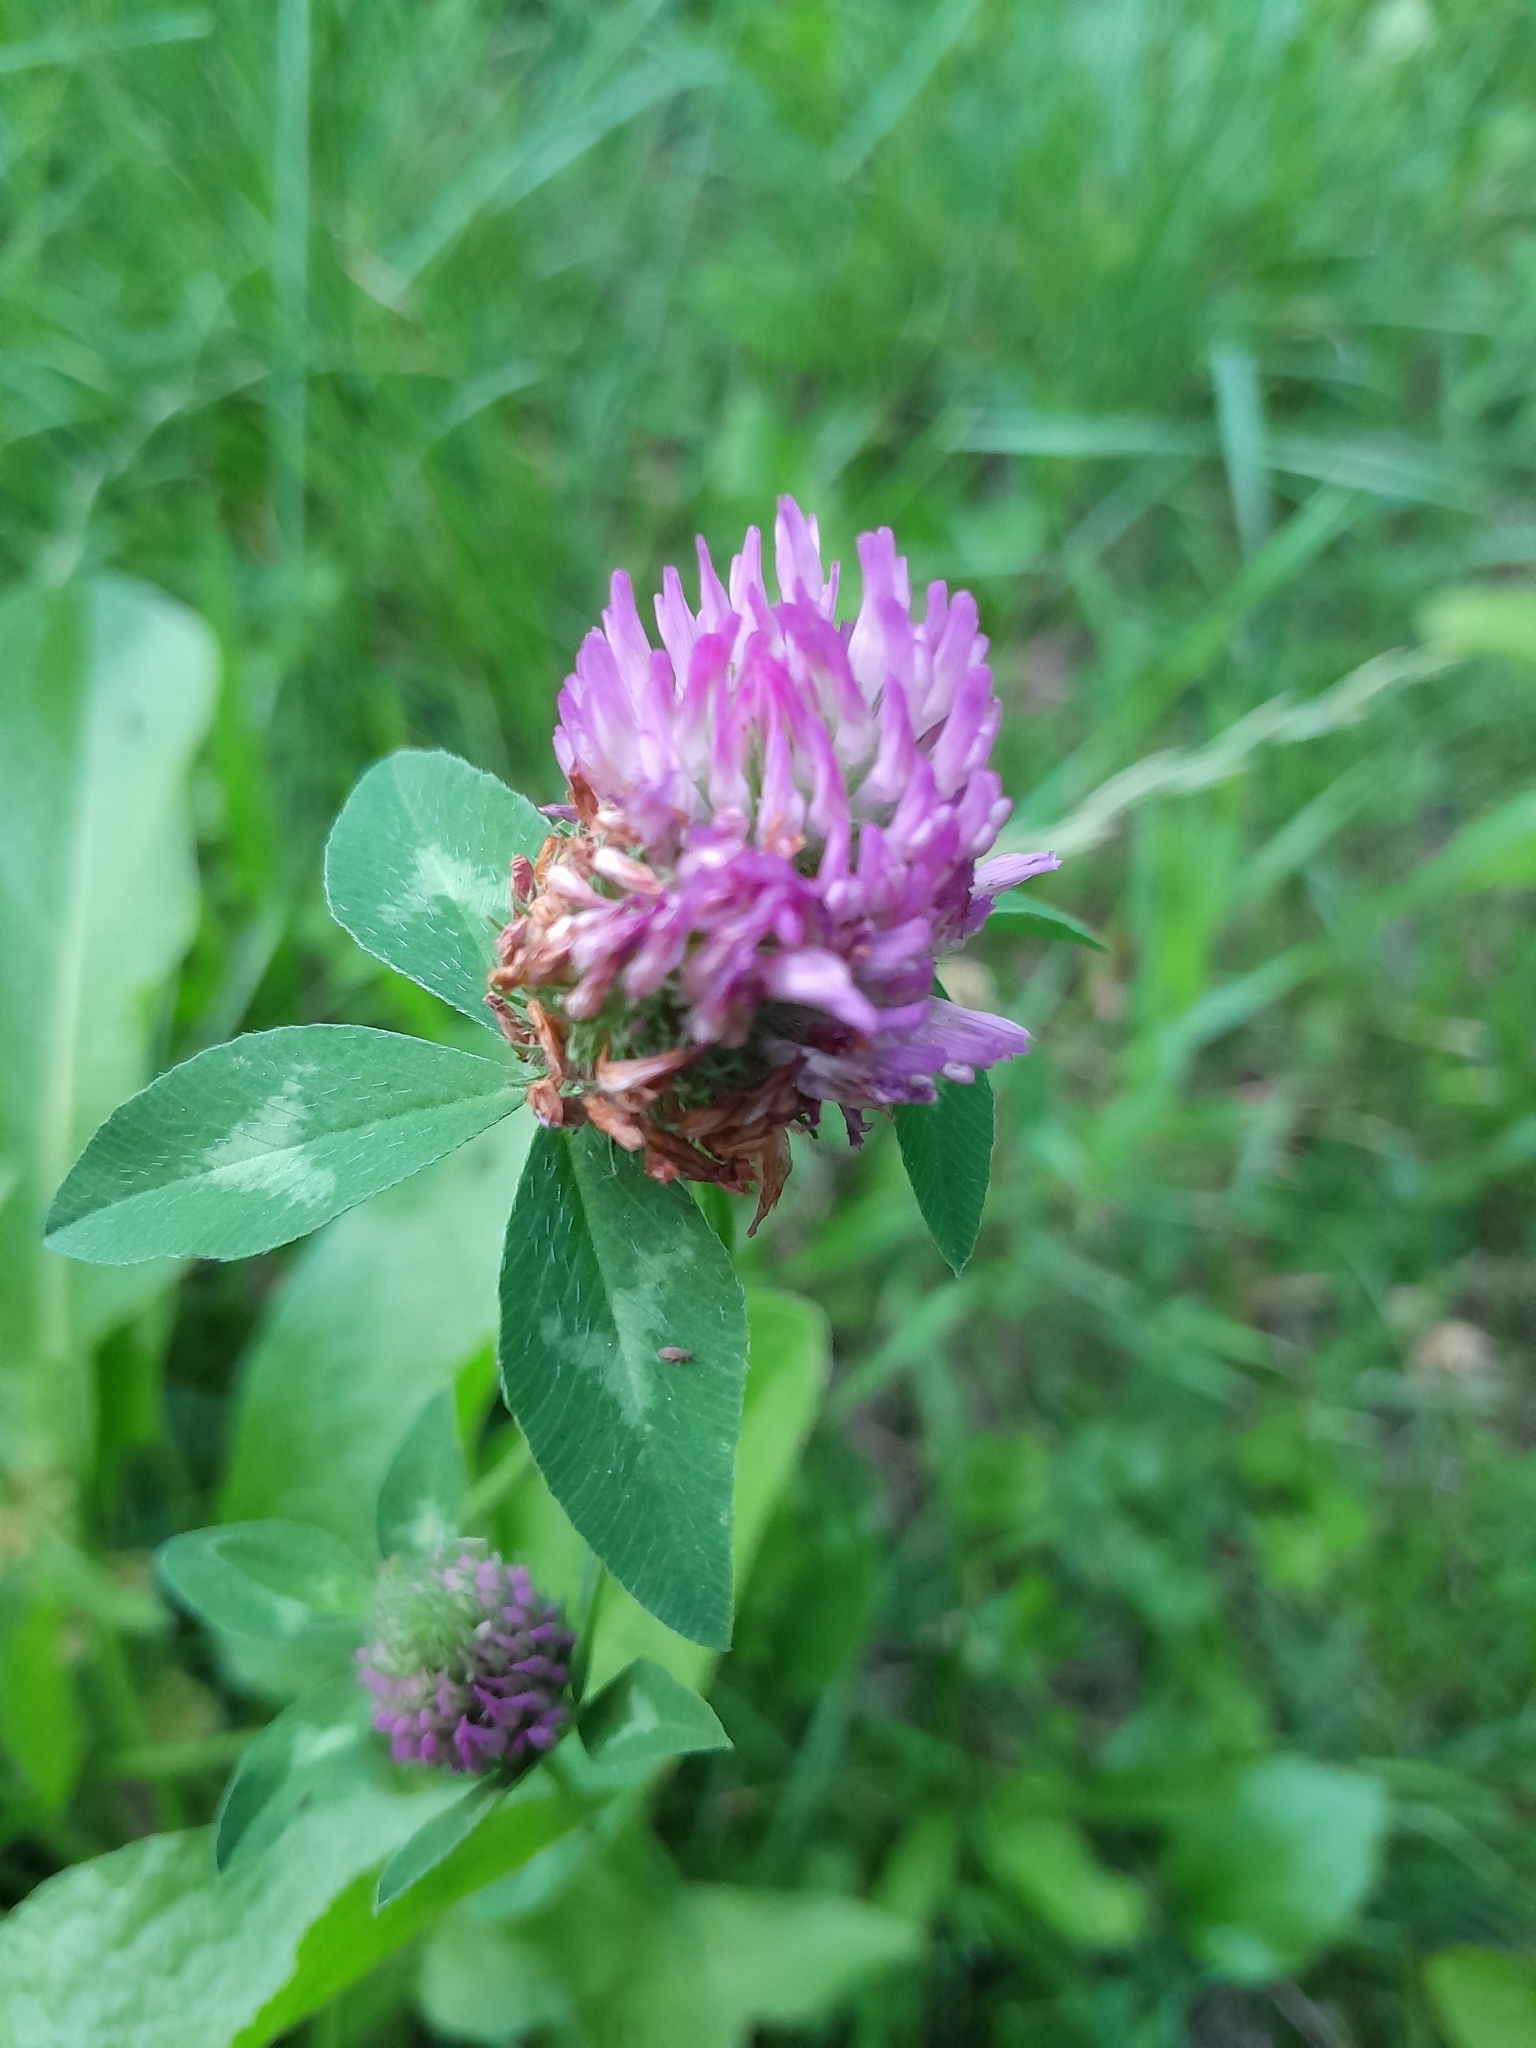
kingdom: Plantae
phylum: Tracheophyta
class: Magnoliopsida
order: Fabales
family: Fabaceae
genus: Trifolium
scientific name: Trifolium pratense
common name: Red clover
